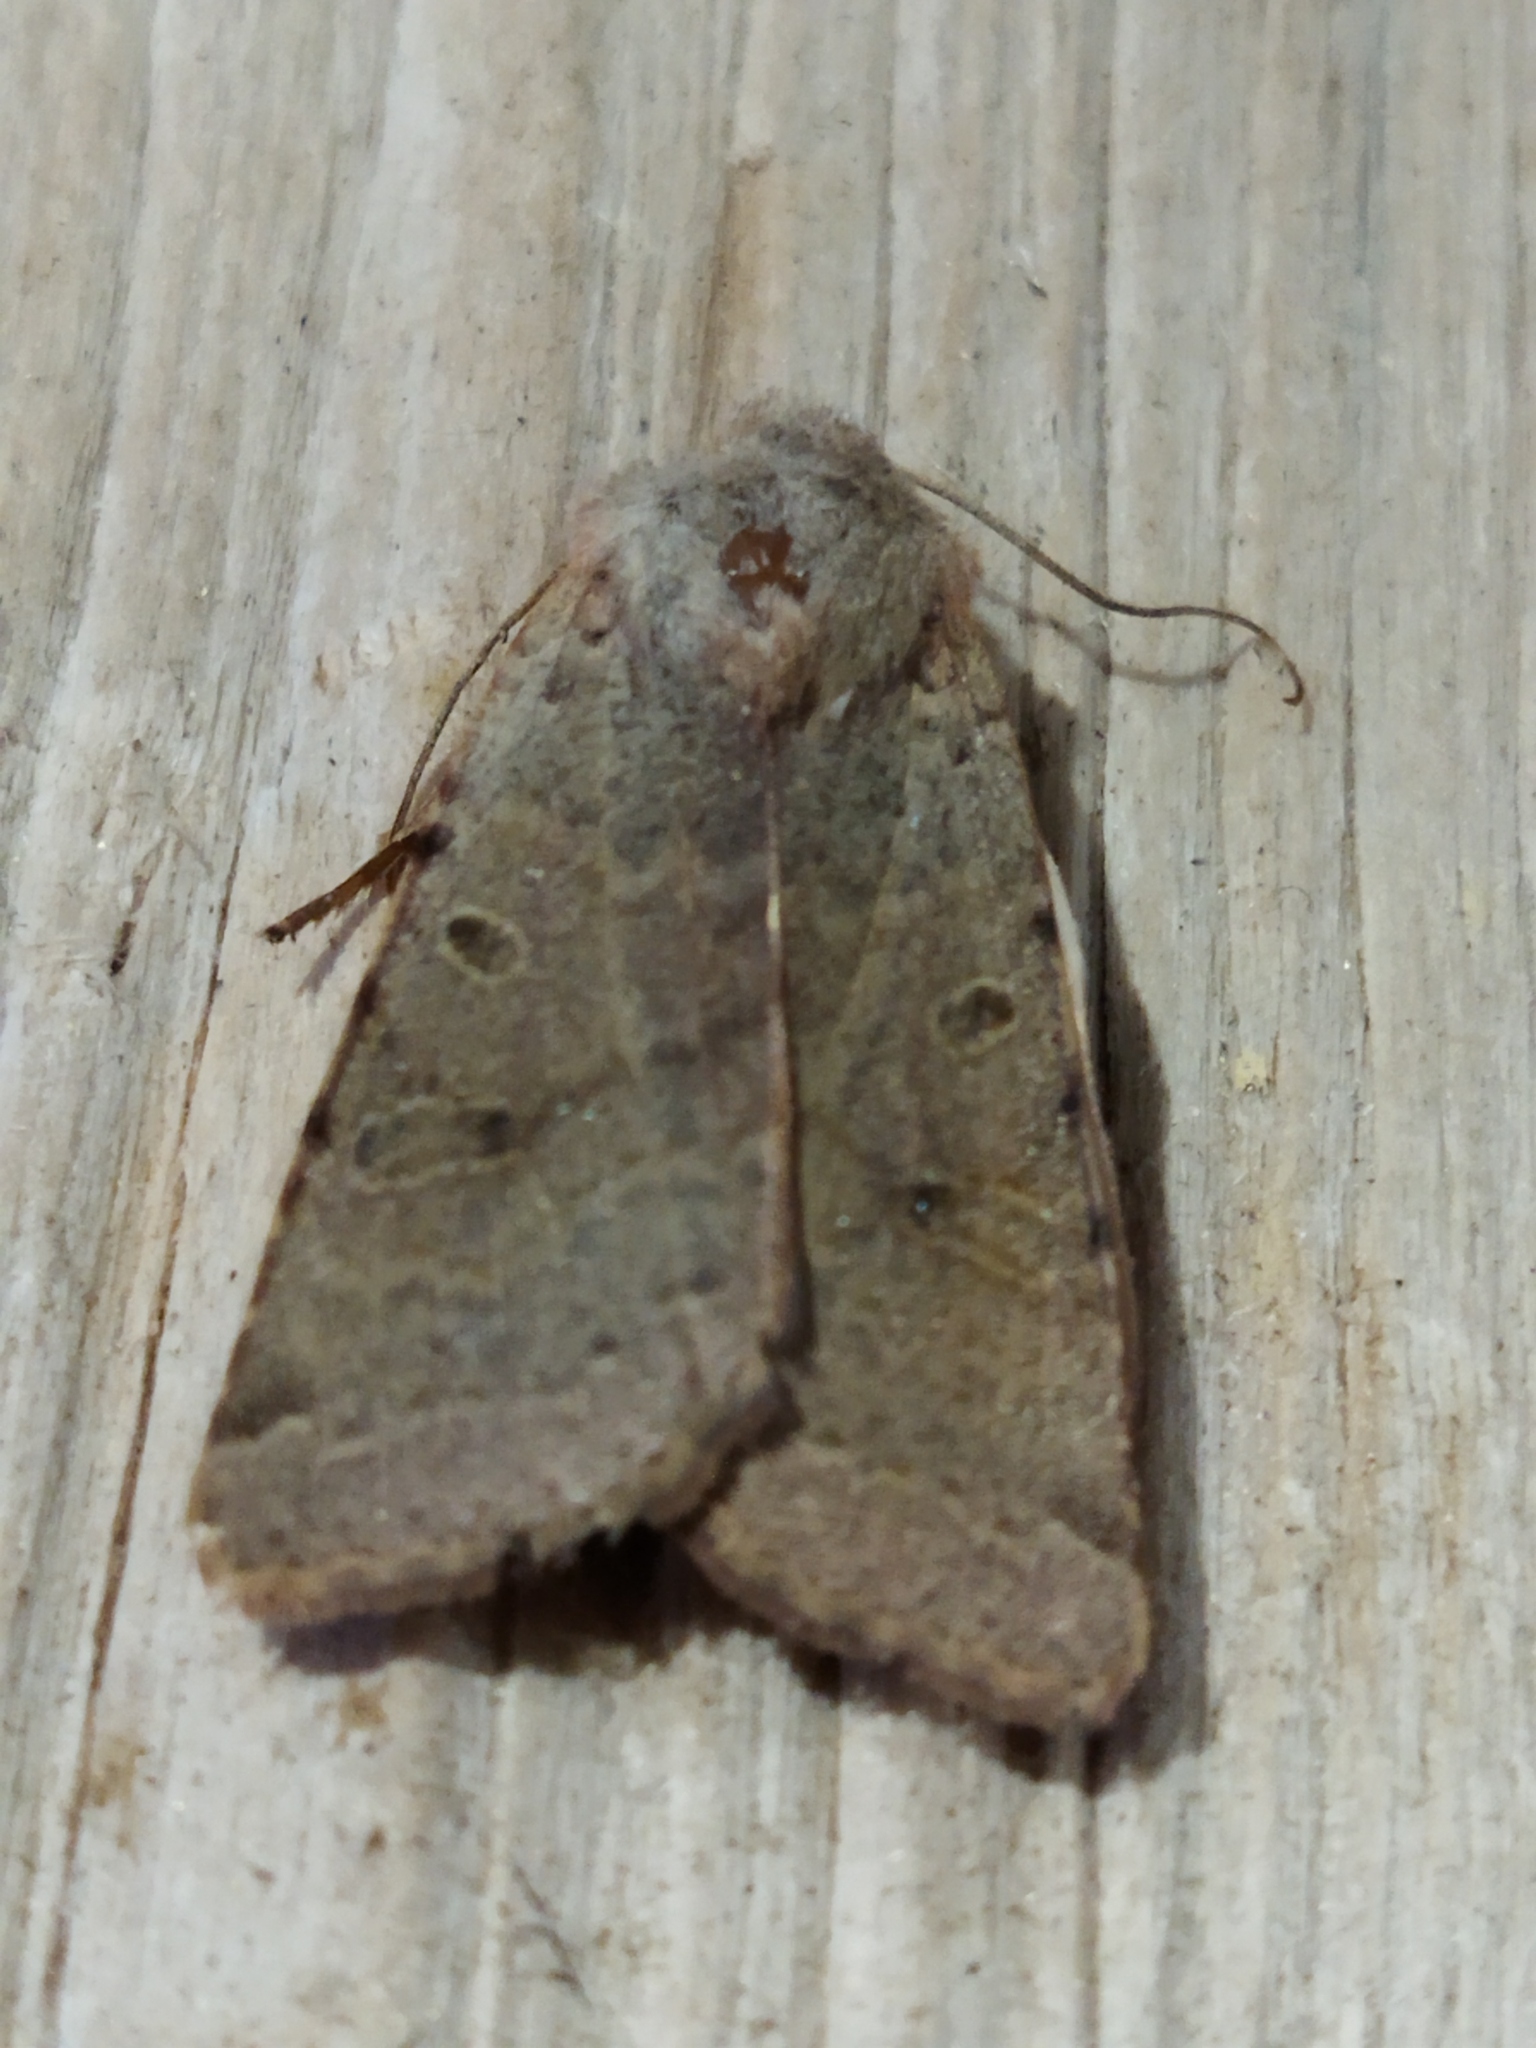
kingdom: Animalia
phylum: Arthropoda
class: Insecta
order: Lepidoptera
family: Noctuidae
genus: Agrochola
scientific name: Agrochola lychnidis
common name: Beaded chestnut
